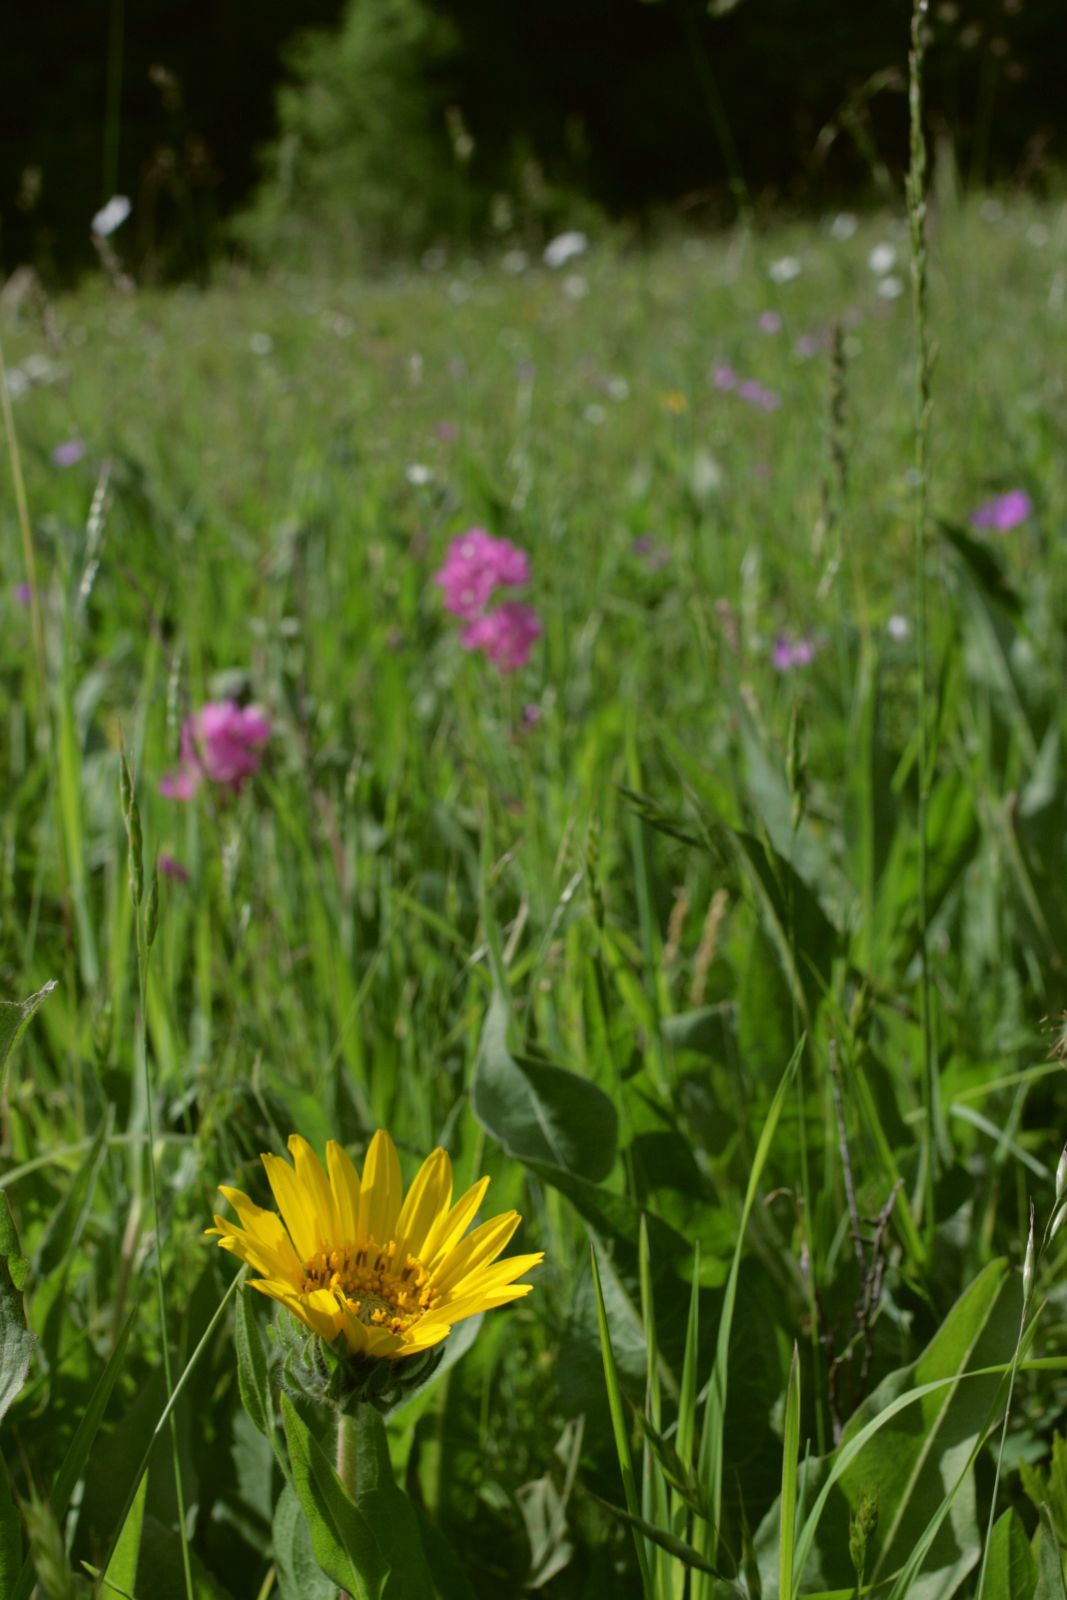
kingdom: Plantae
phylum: Tracheophyta
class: Magnoliopsida
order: Asterales
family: Asteraceae
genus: Wyethia
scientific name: Wyethia angustifolia
